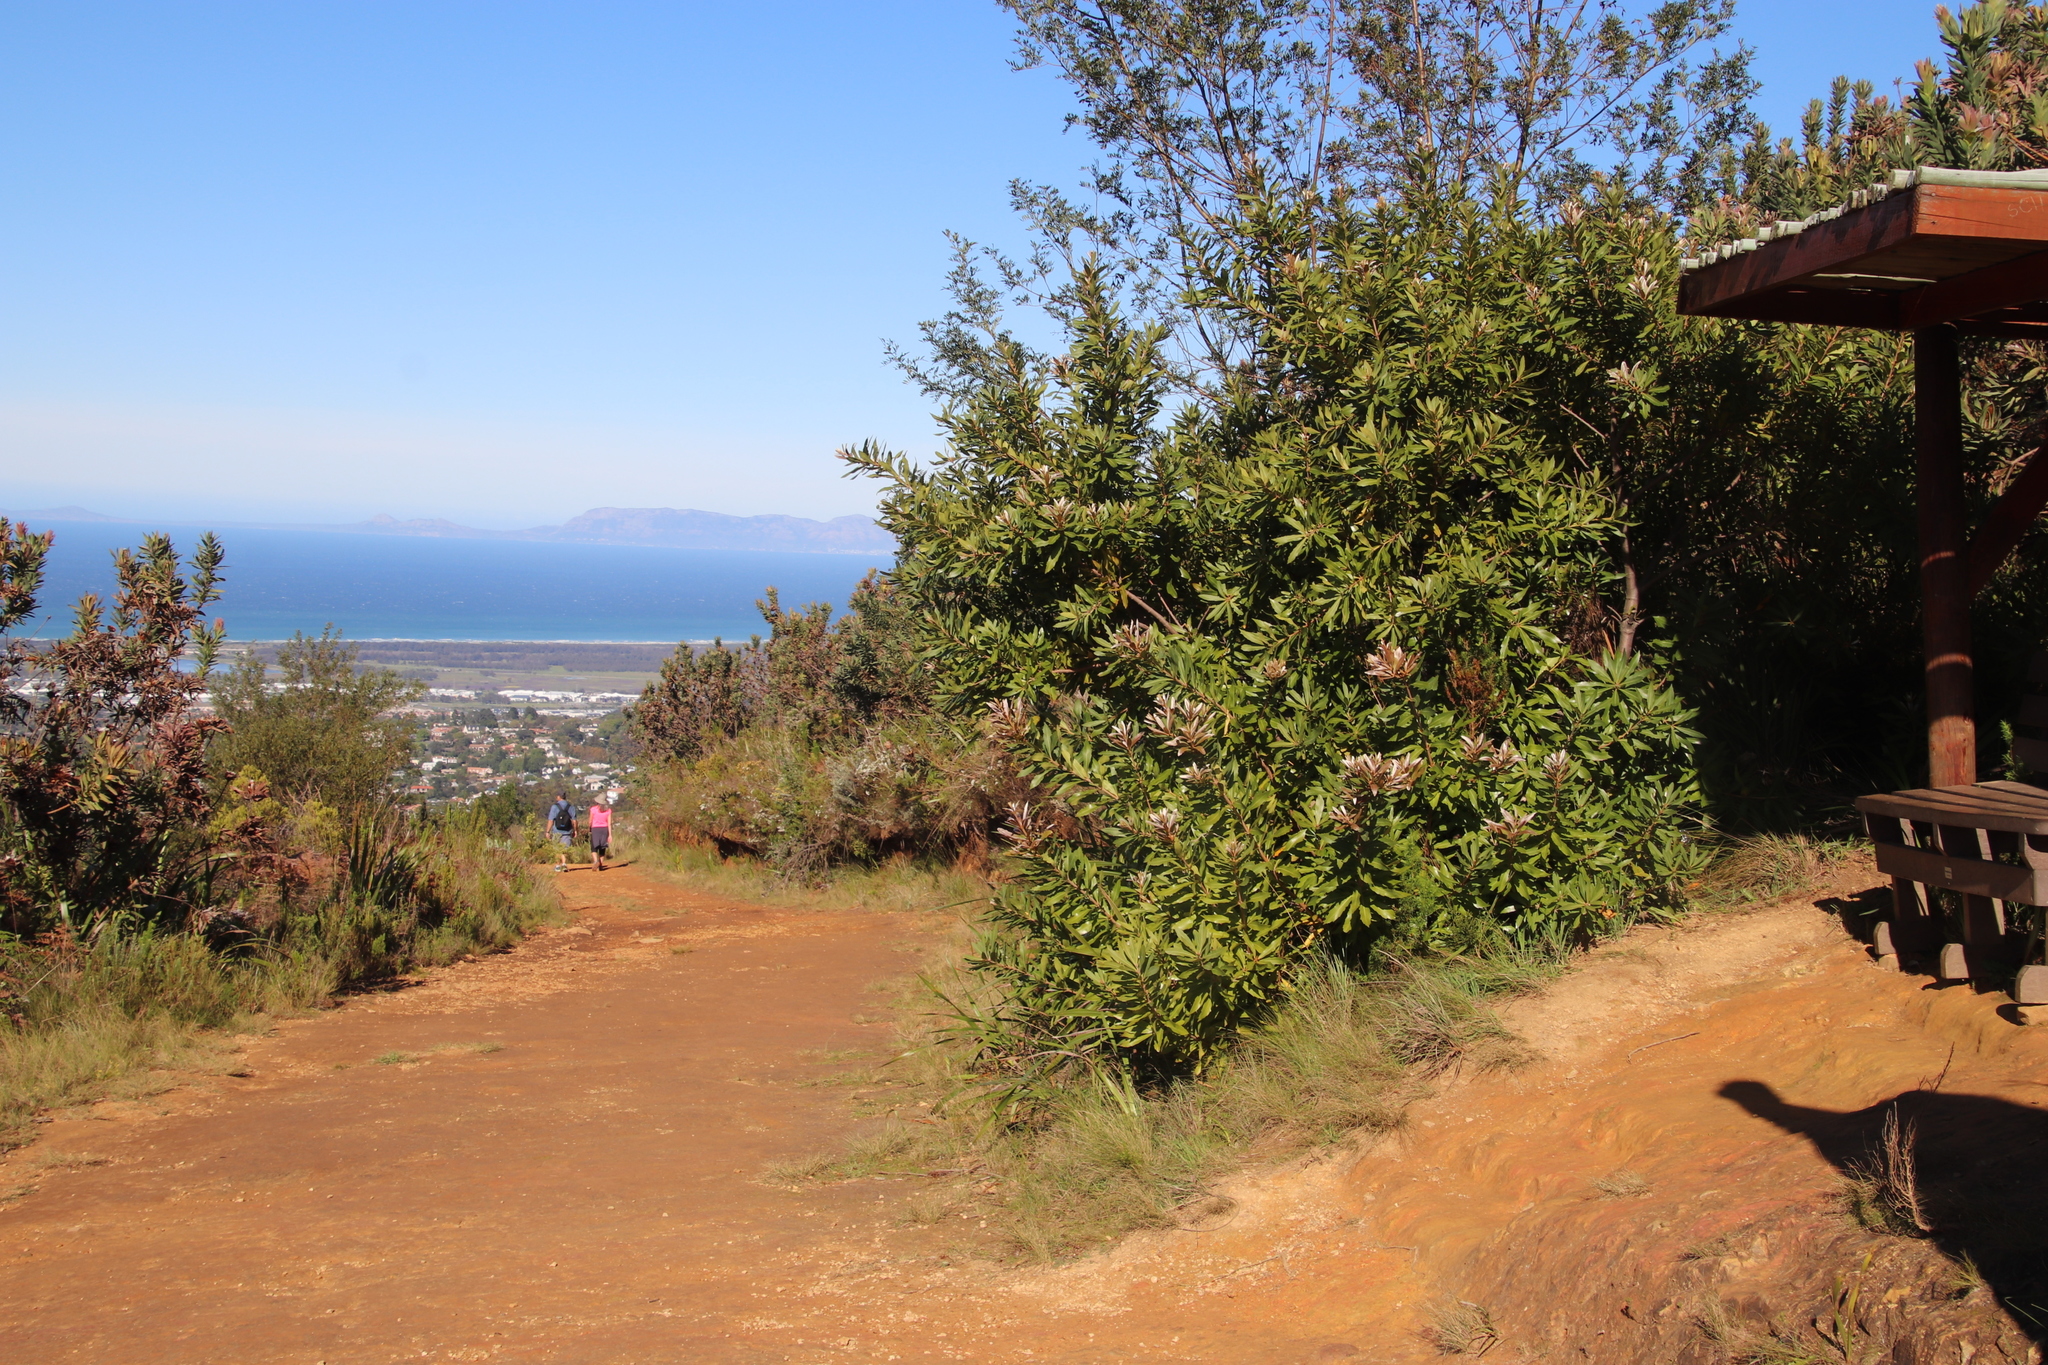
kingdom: Plantae
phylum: Tracheophyta
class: Magnoliopsida
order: Proteales
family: Proteaceae
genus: Brabejum
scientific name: Brabejum stellatifolium
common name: Wild almond
